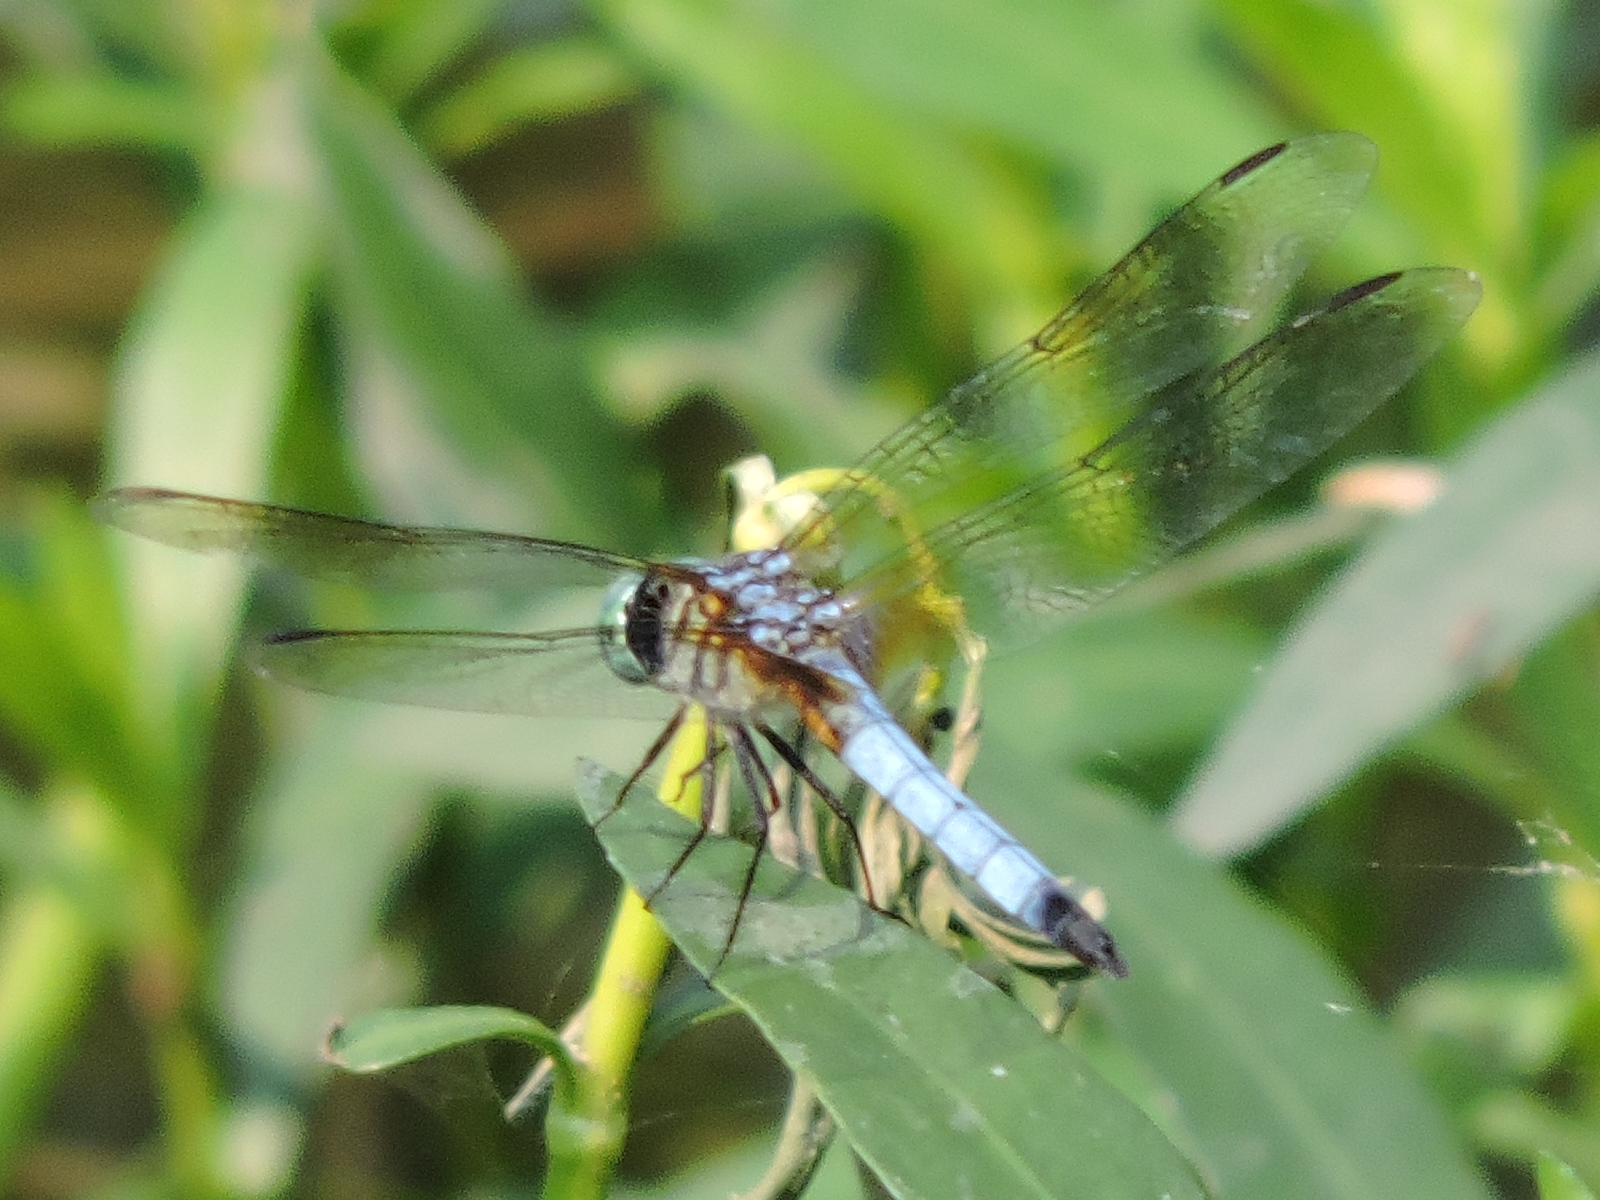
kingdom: Animalia
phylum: Arthropoda
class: Insecta
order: Odonata
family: Libellulidae
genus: Pachydiplax
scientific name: Pachydiplax longipennis
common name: Blue dasher
